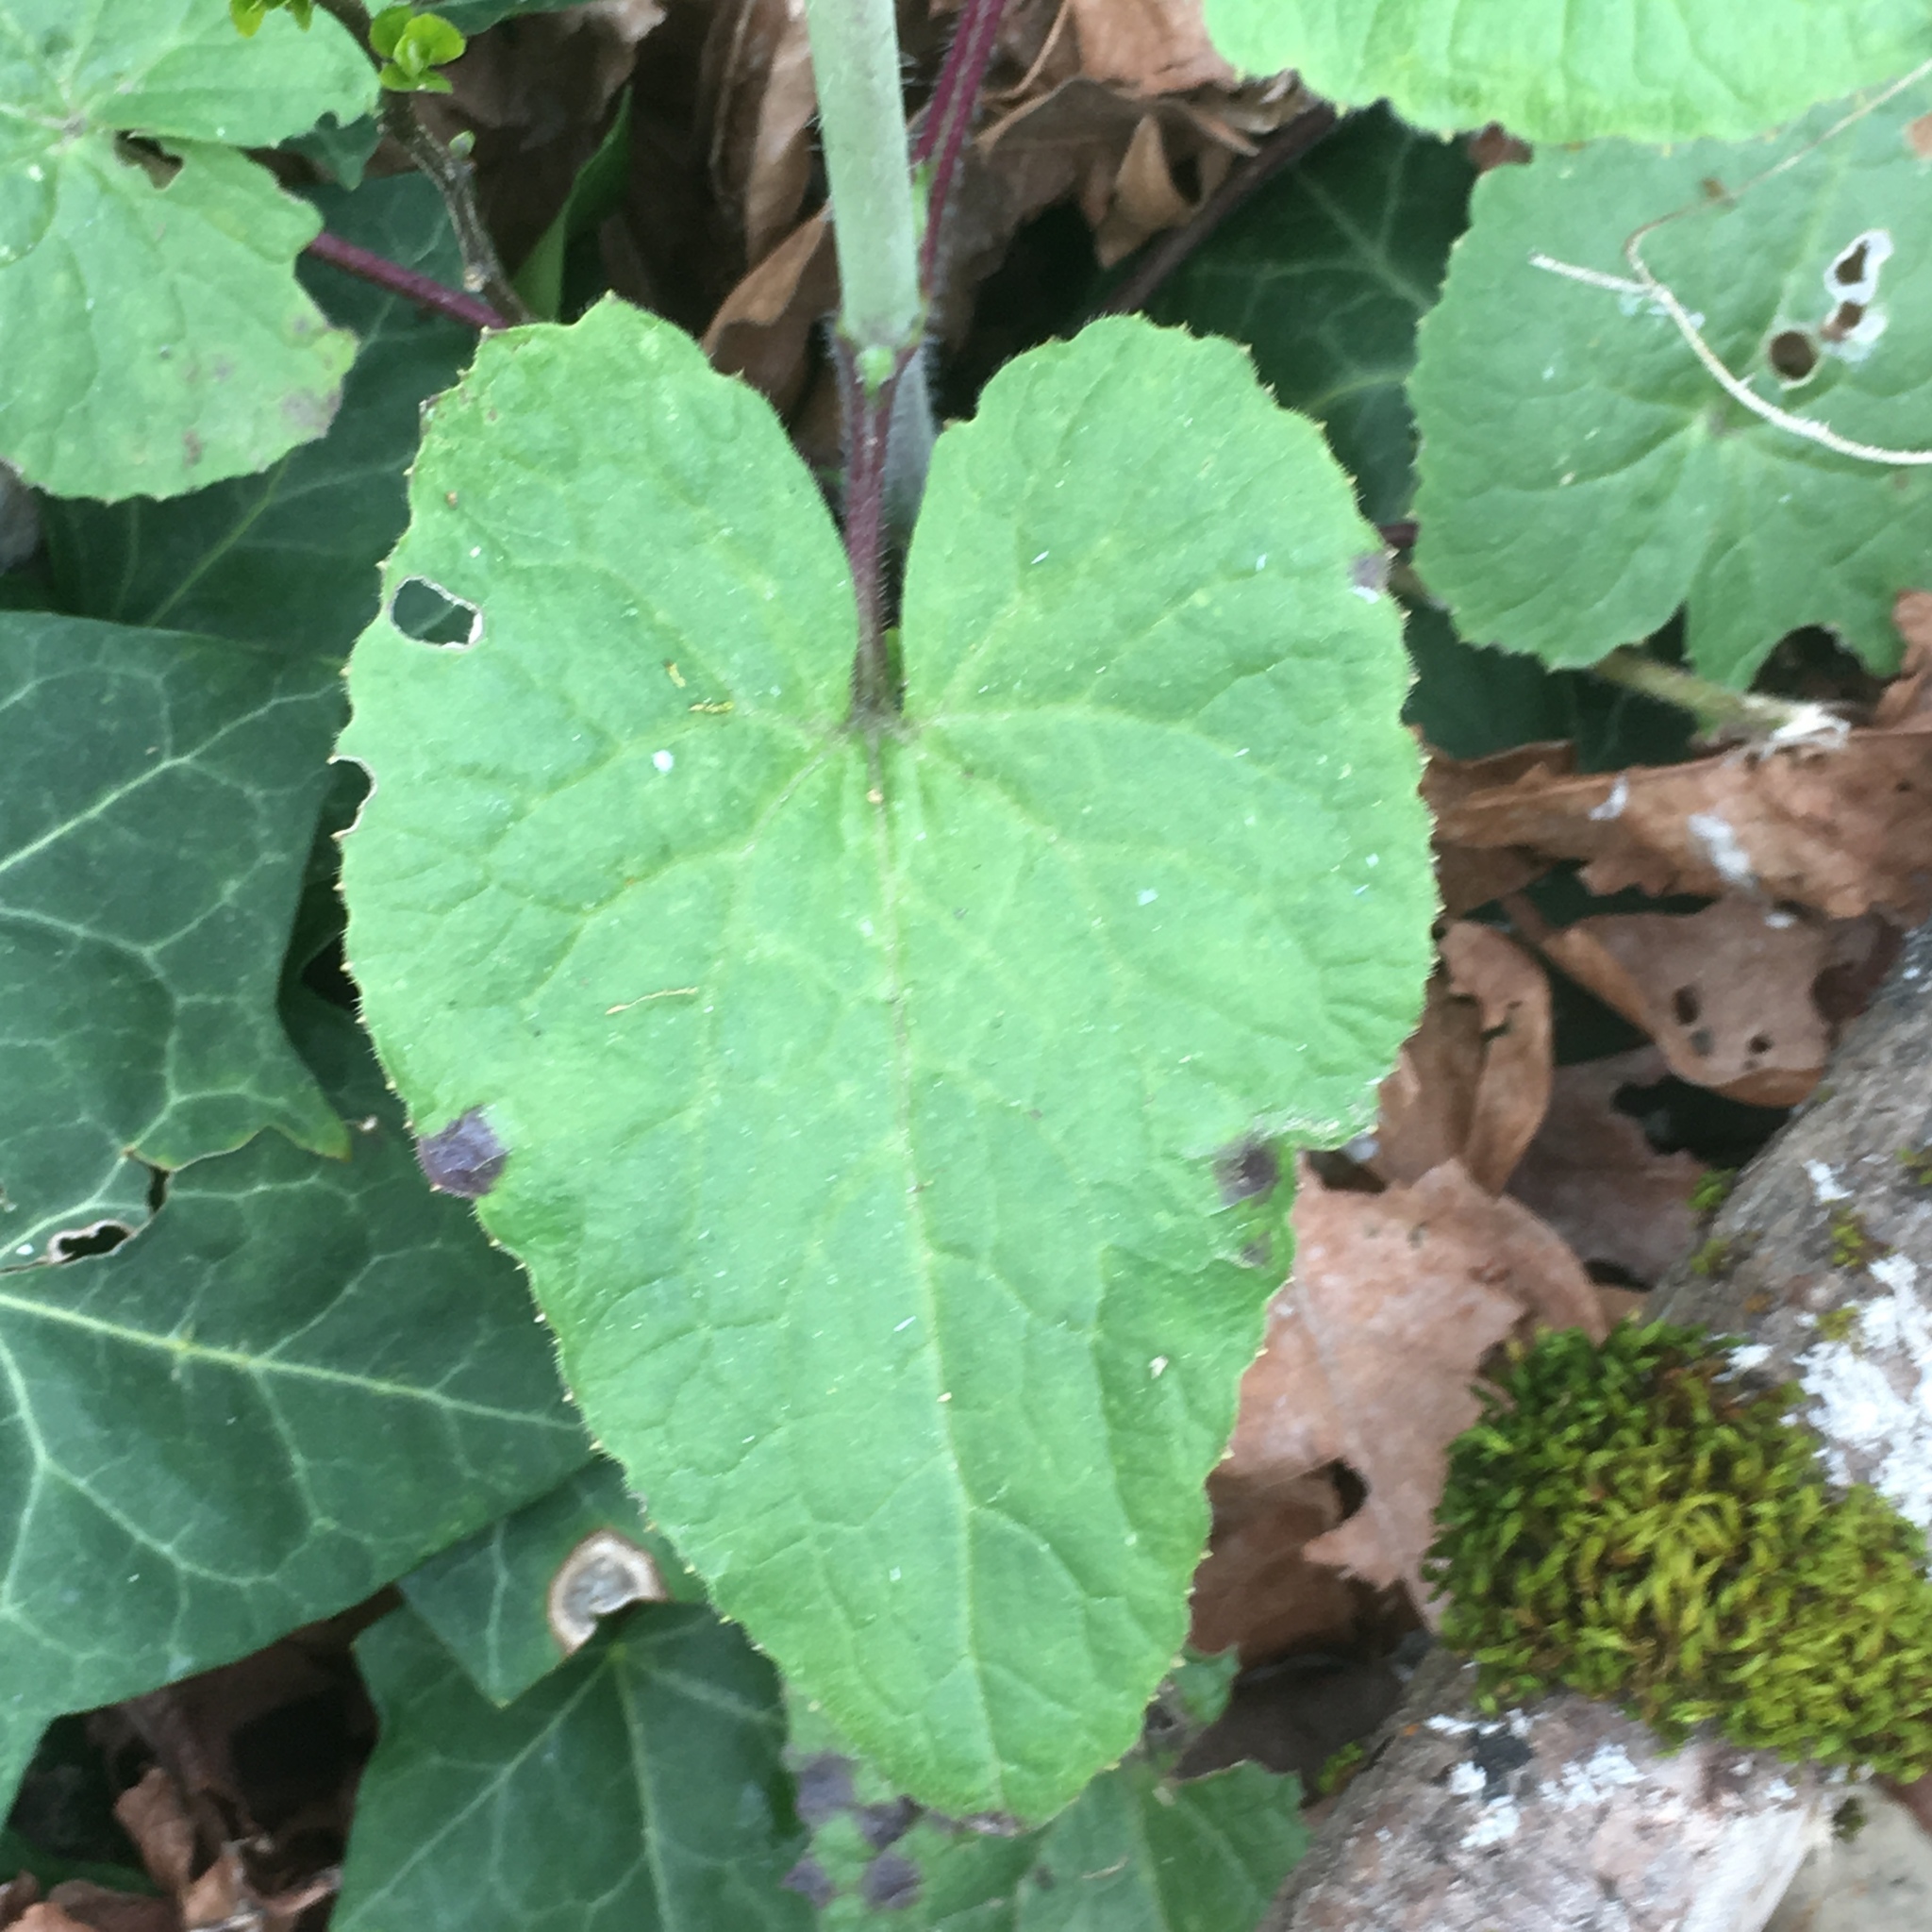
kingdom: Plantae
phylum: Tracheophyta
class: Magnoliopsida
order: Brassicales
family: Brassicaceae
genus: Lunaria
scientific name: Lunaria annua
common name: Honesty
